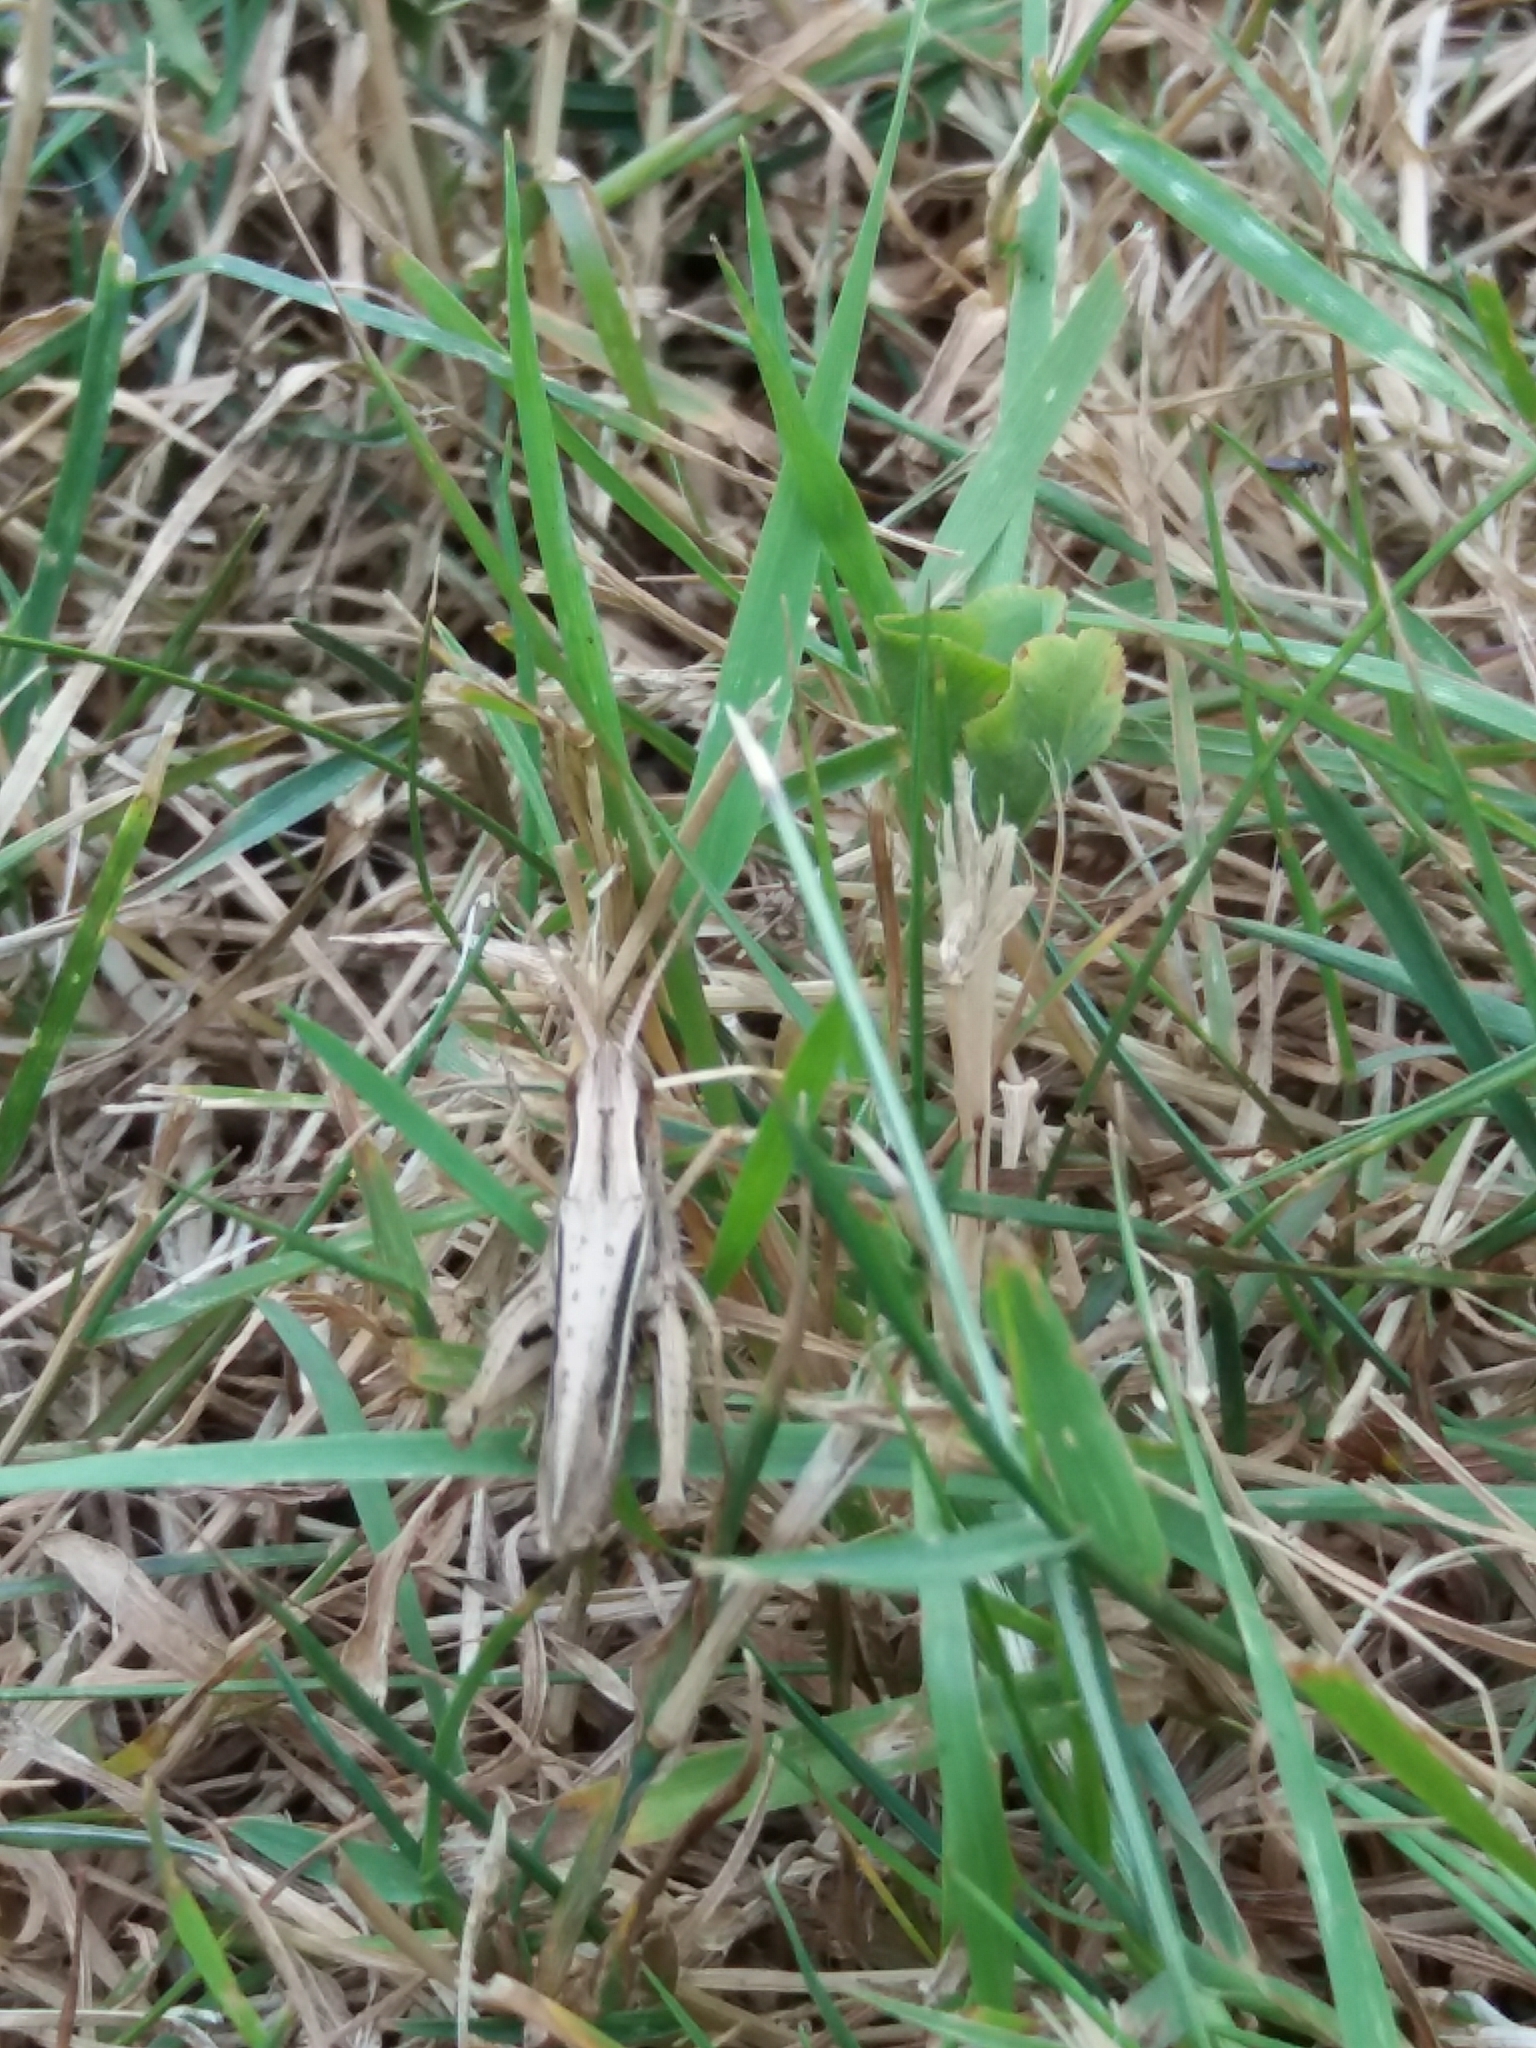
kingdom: Animalia
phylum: Arthropoda
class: Insecta
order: Orthoptera
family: Acrididae
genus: Chorthippus
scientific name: Chorthippus albomarginatus
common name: Lesser marsh grasshopper
